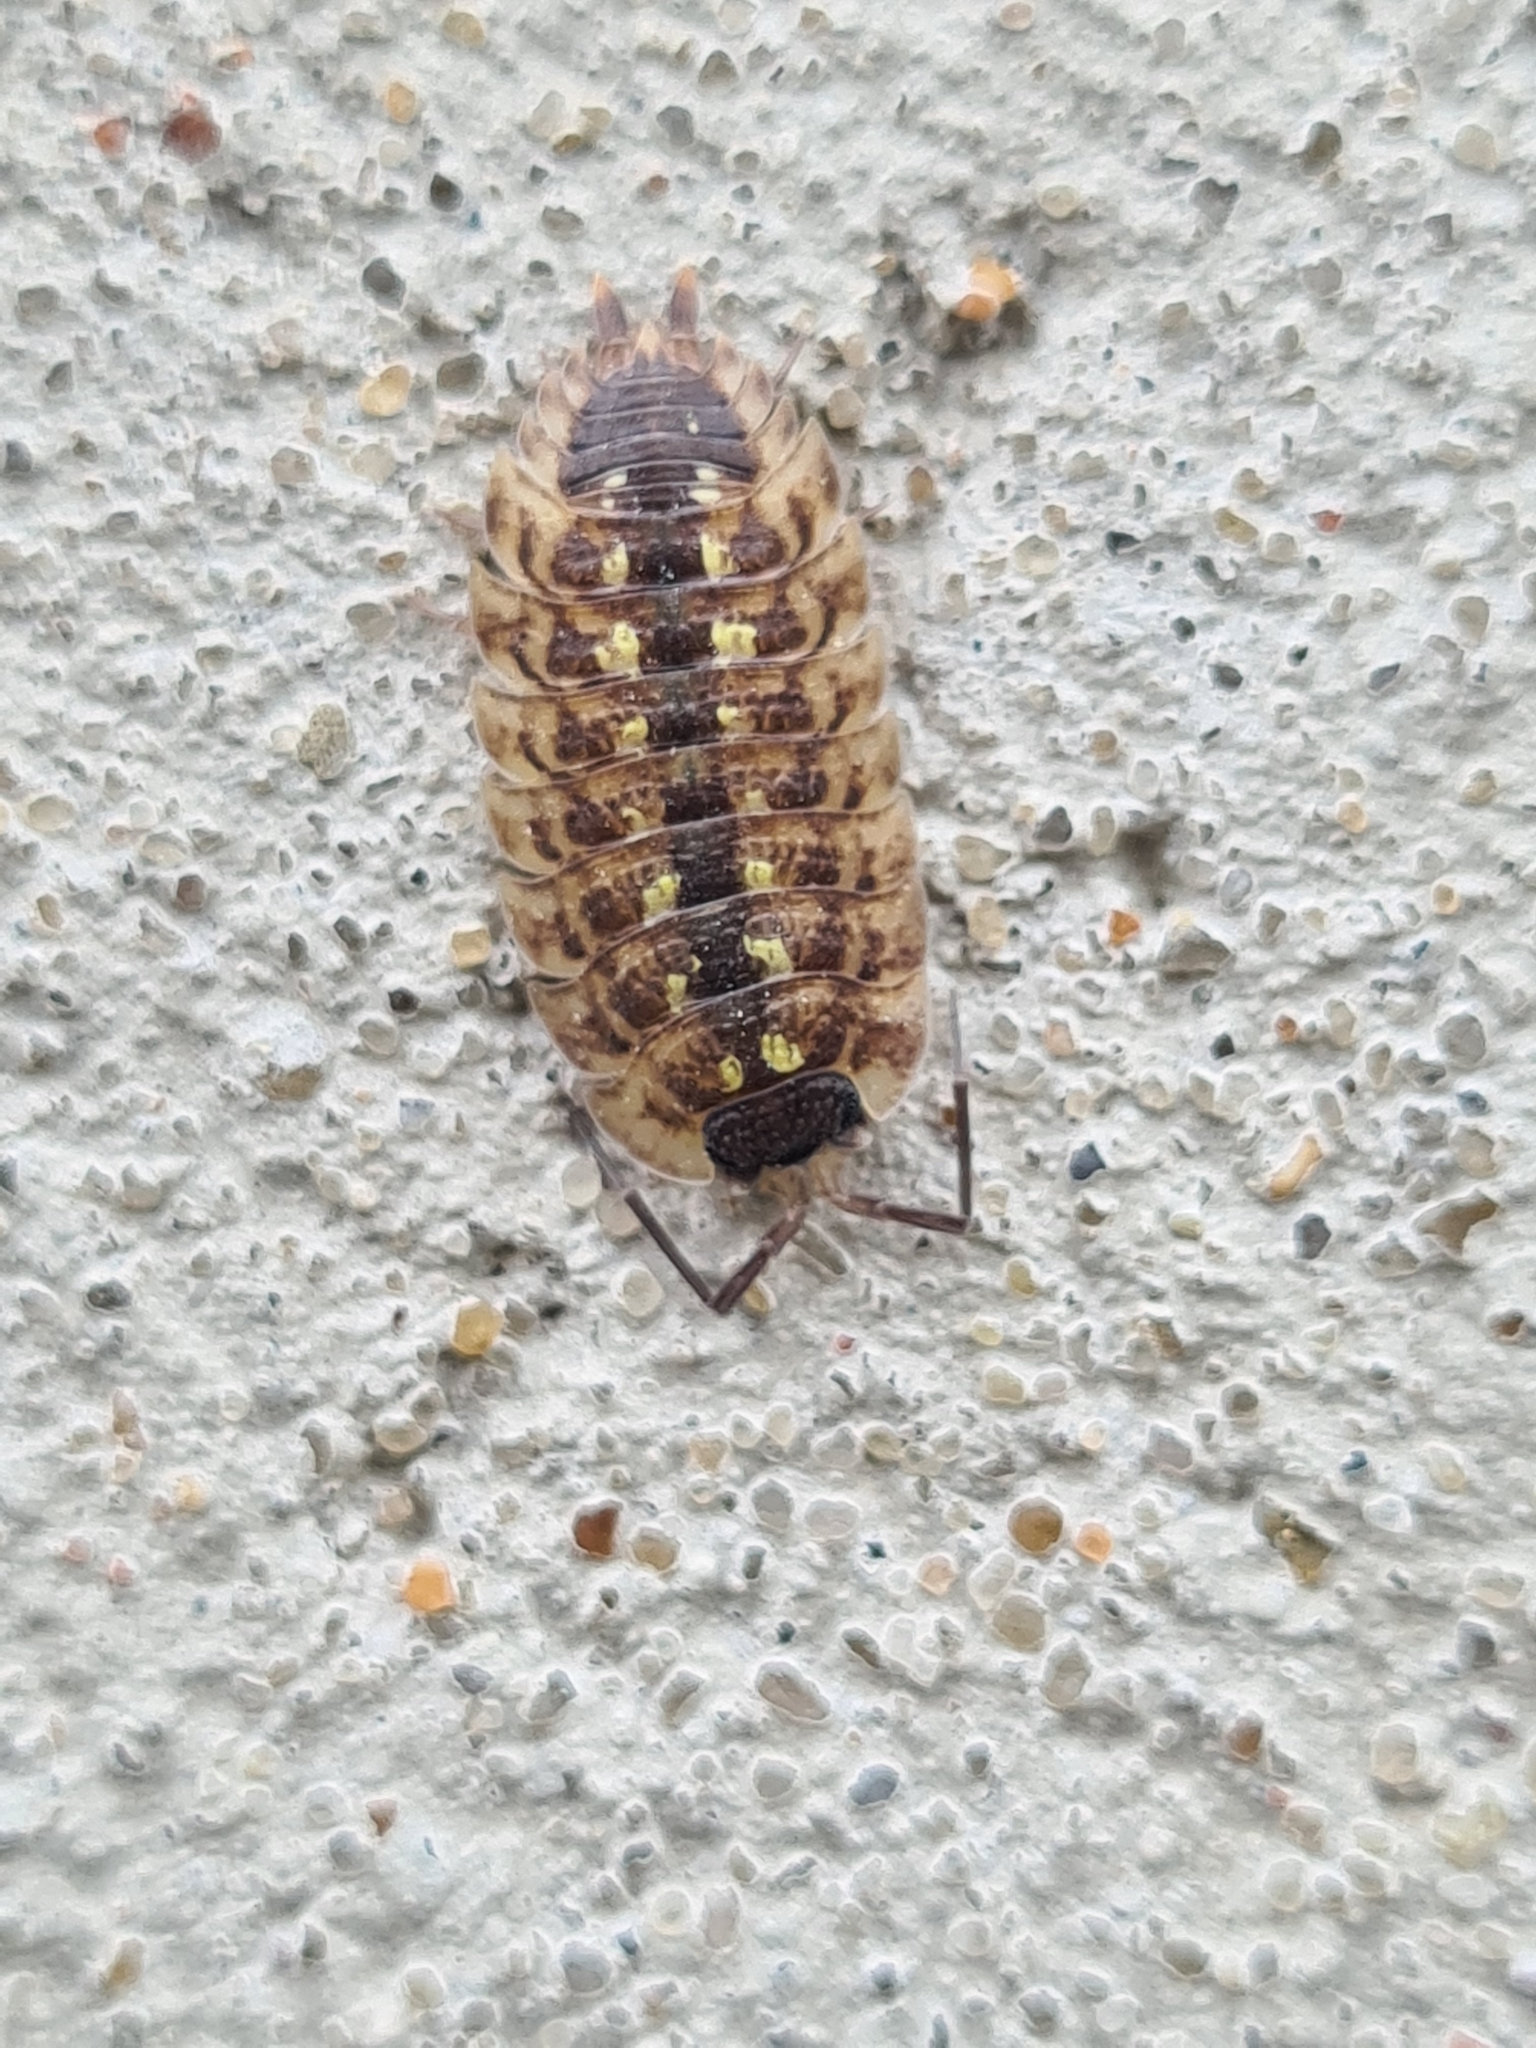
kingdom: Animalia
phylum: Arthropoda
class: Malacostraca
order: Isopoda
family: Porcellionidae
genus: Porcellio
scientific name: Porcellio spinicornis
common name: Painted woodlouse
